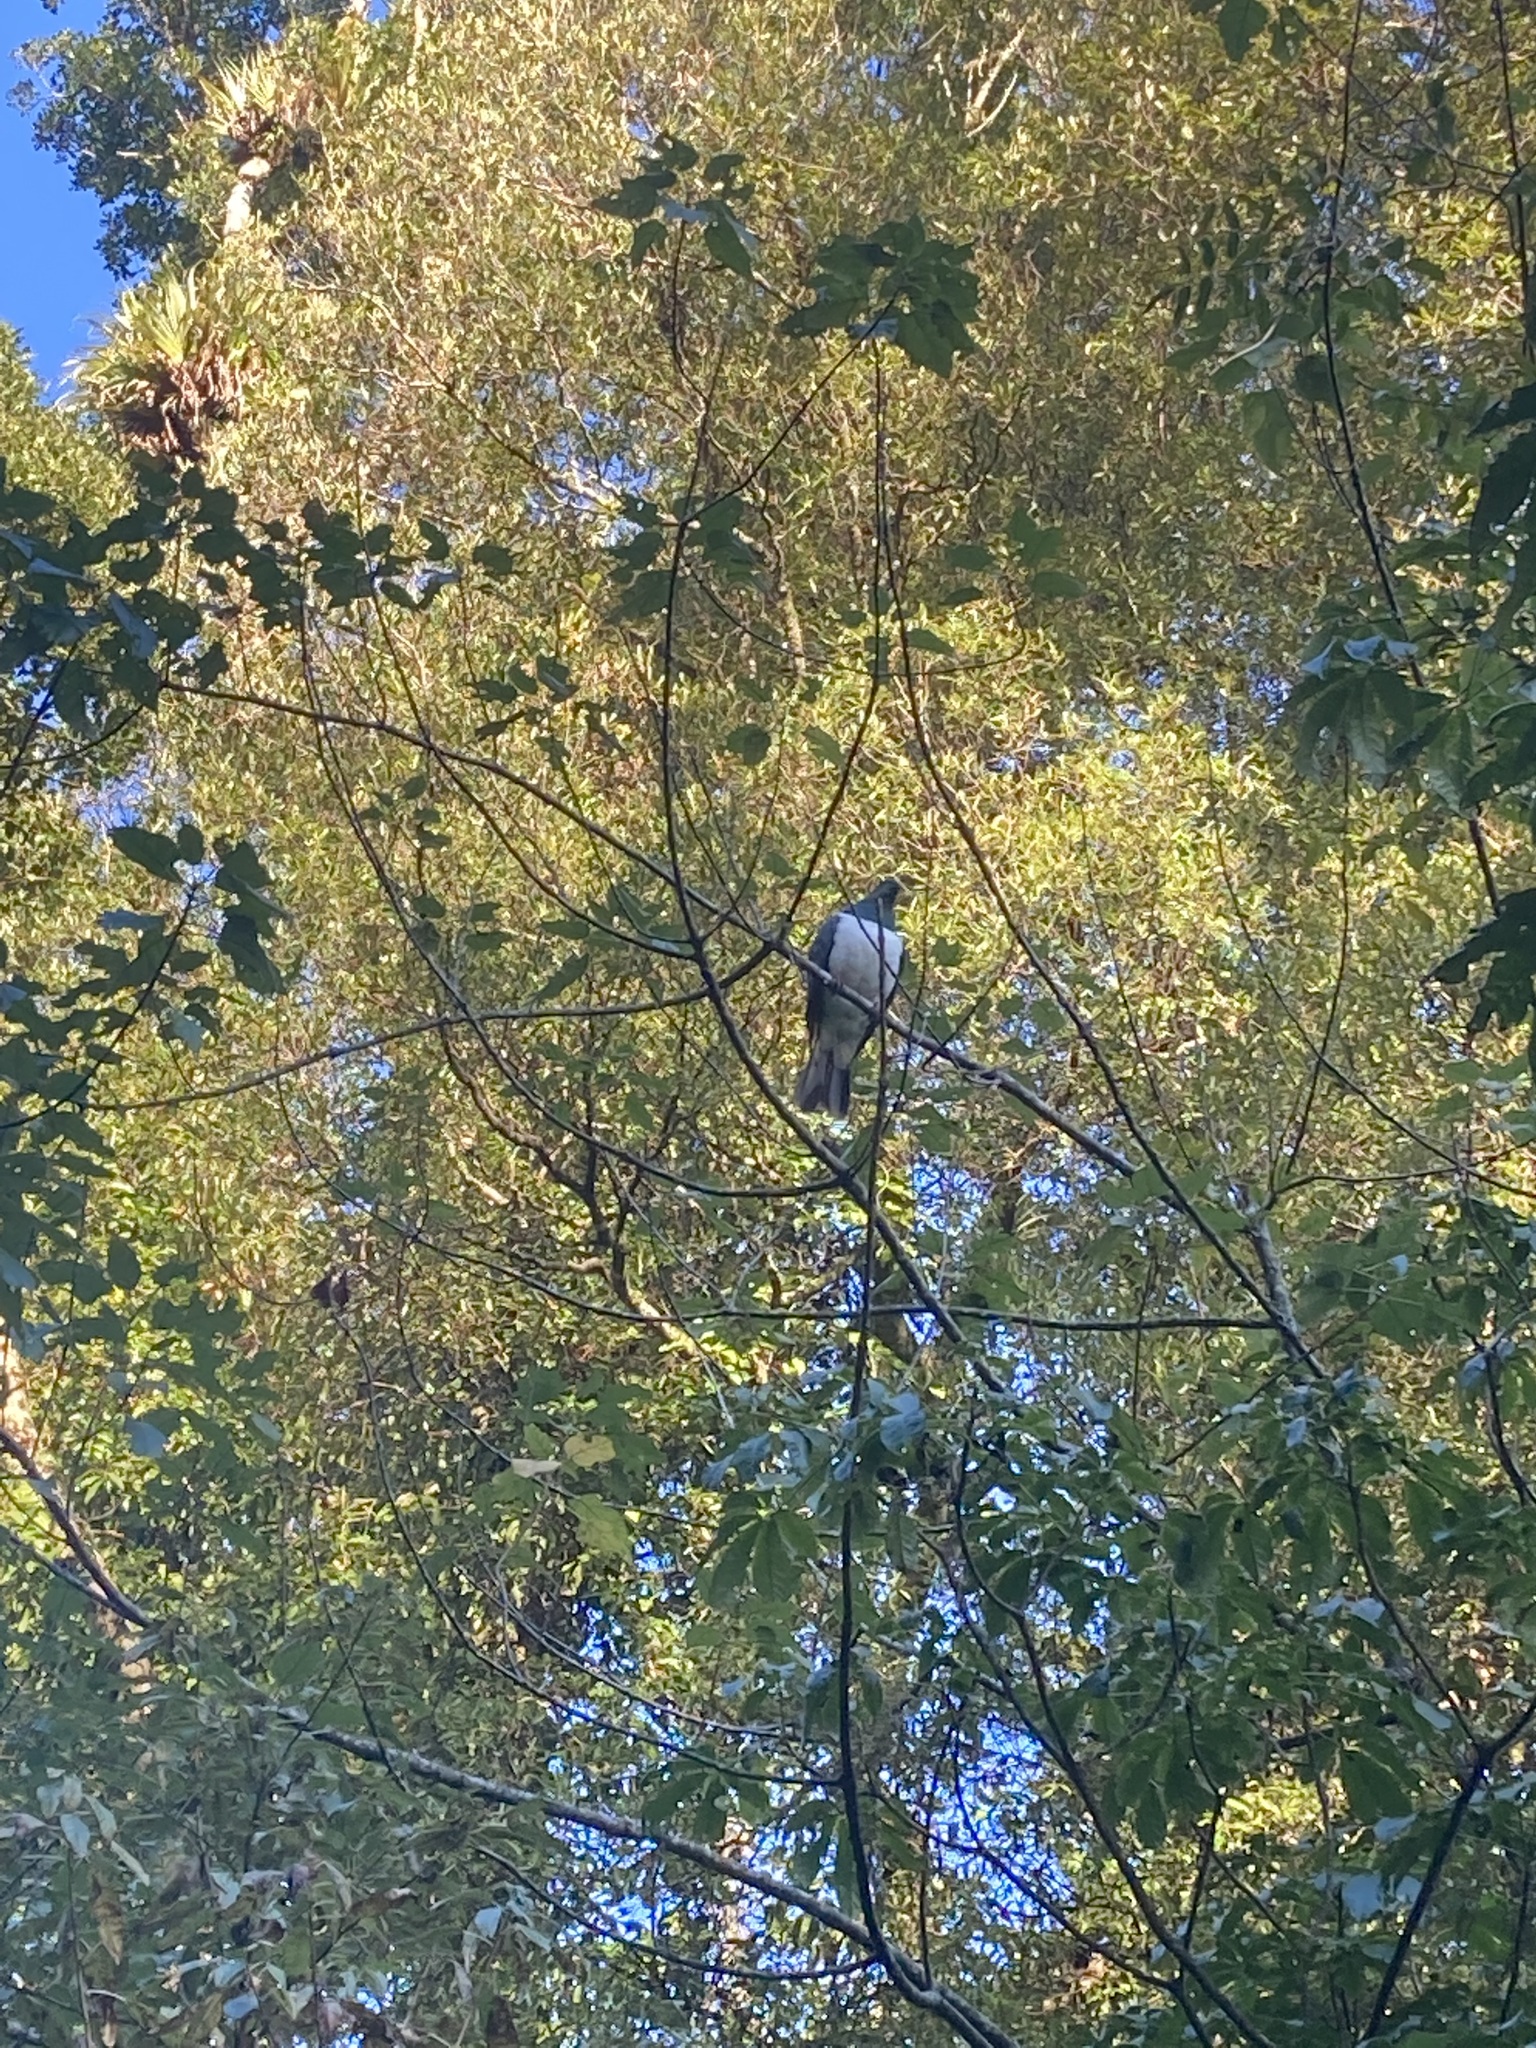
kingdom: Animalia
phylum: Chordata
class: Aves
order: Columbiformes
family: Columbidae
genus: Hemiphaga
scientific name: Hemiphaga novaeseelandiae
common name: New zealand pigeon
